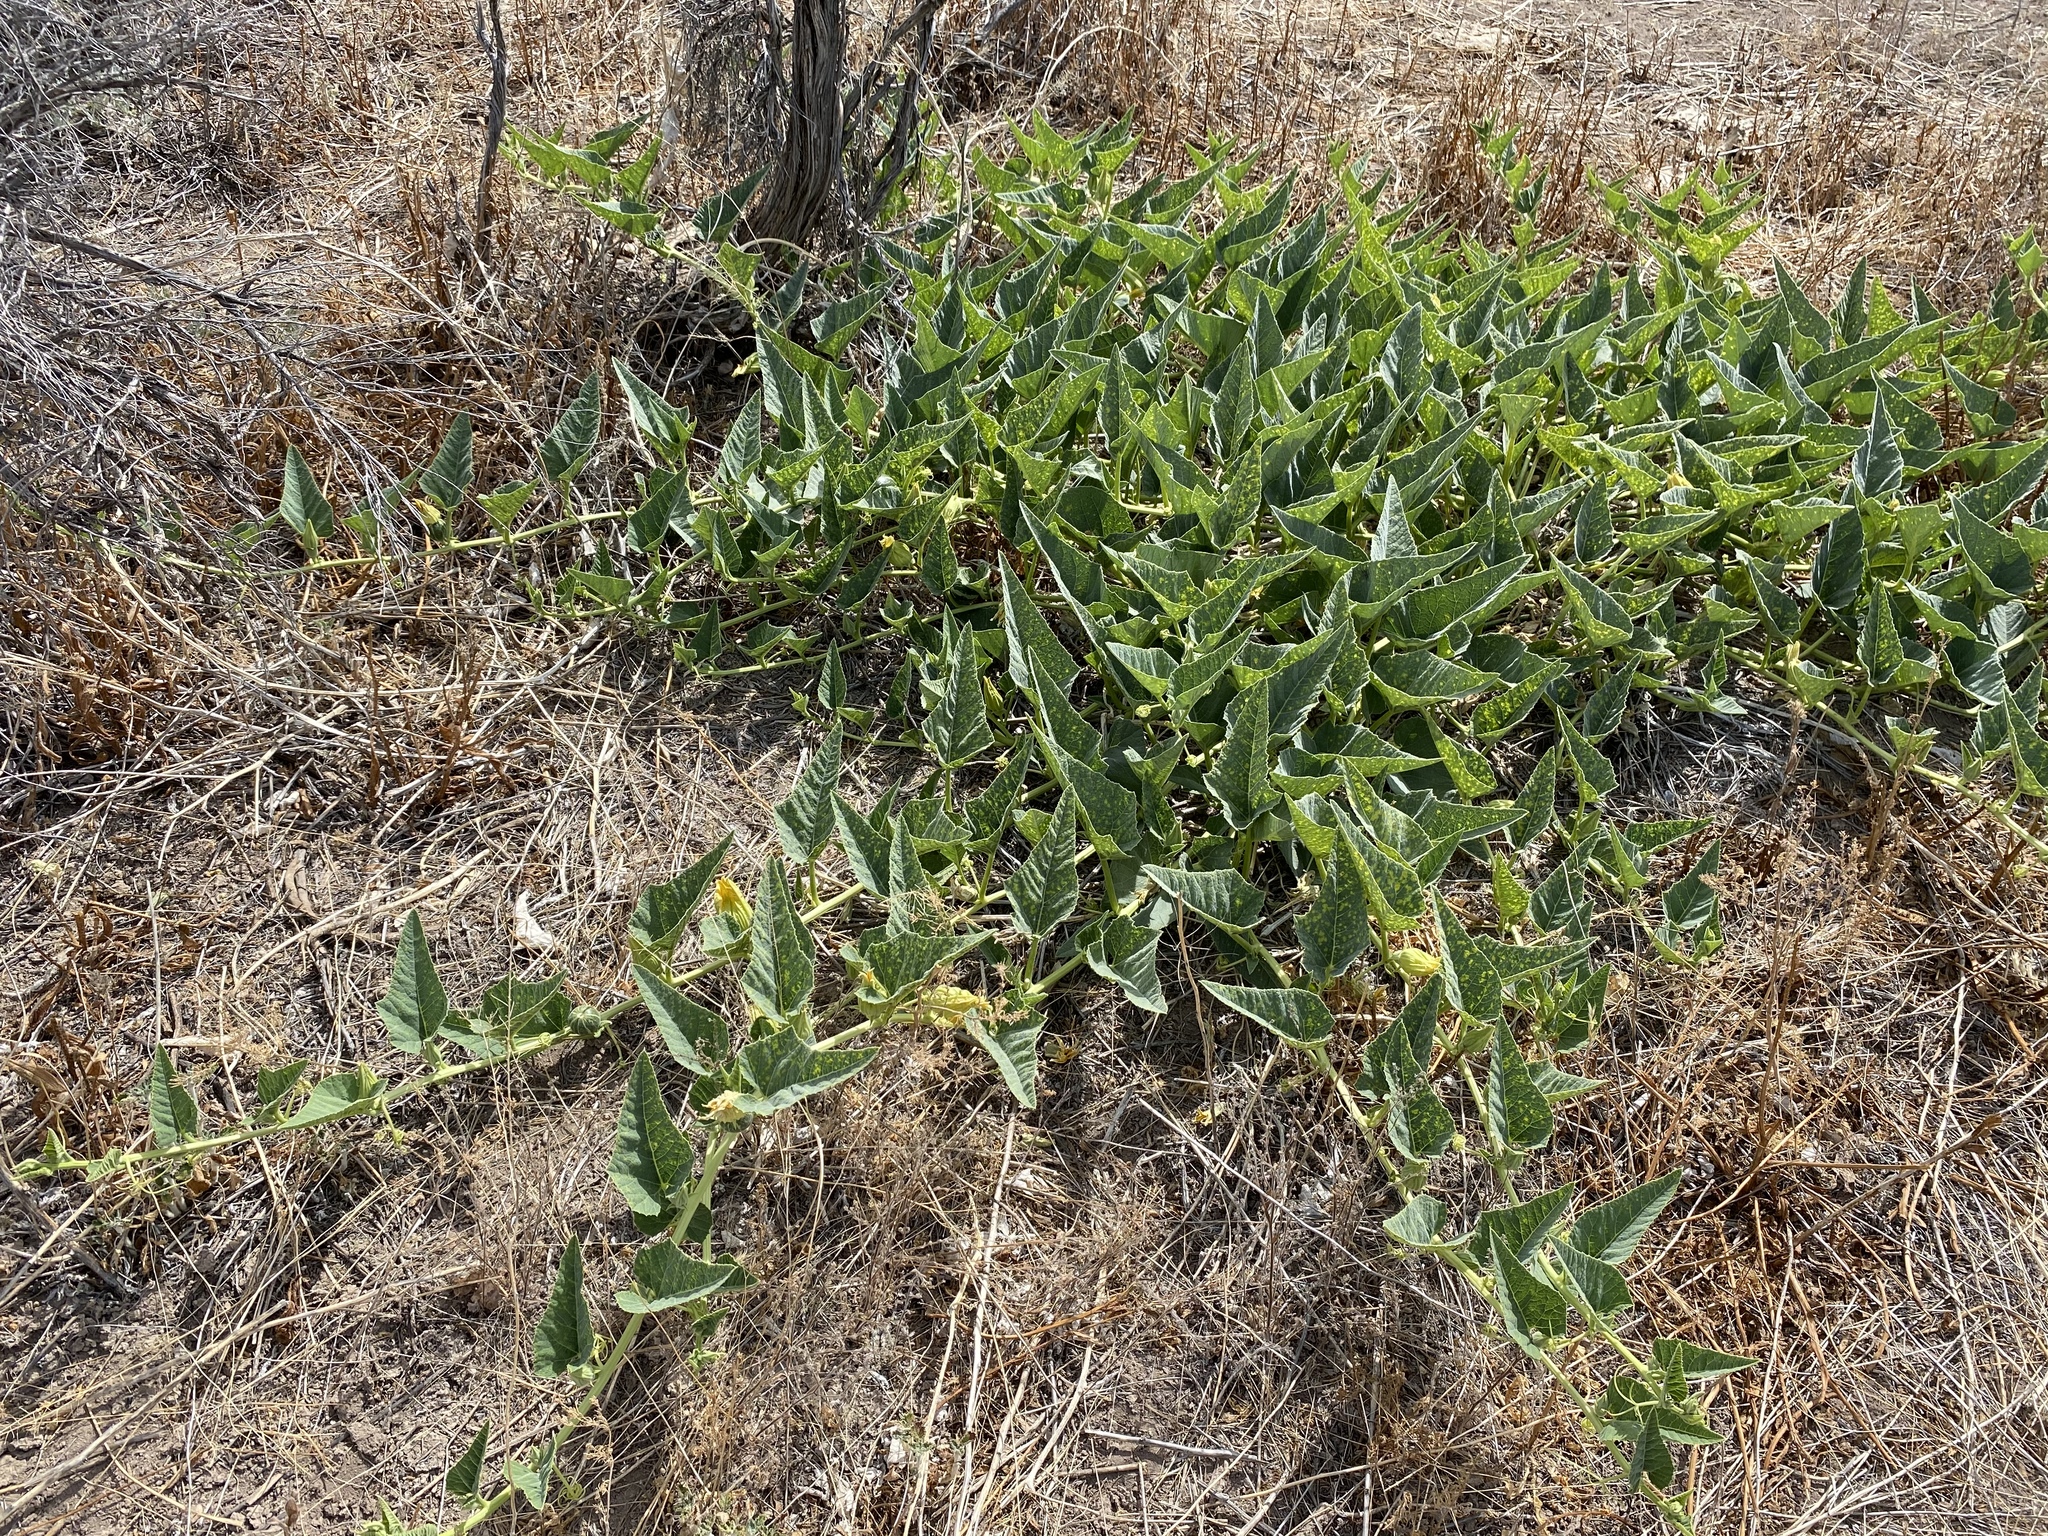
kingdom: Plantae
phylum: Tracheophyta
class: Magnoliopsida
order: Cucurbitales
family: Cucurbitaceae
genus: Cucurbita
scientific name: Cucurbita foetidissima
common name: Buffalo gourd
